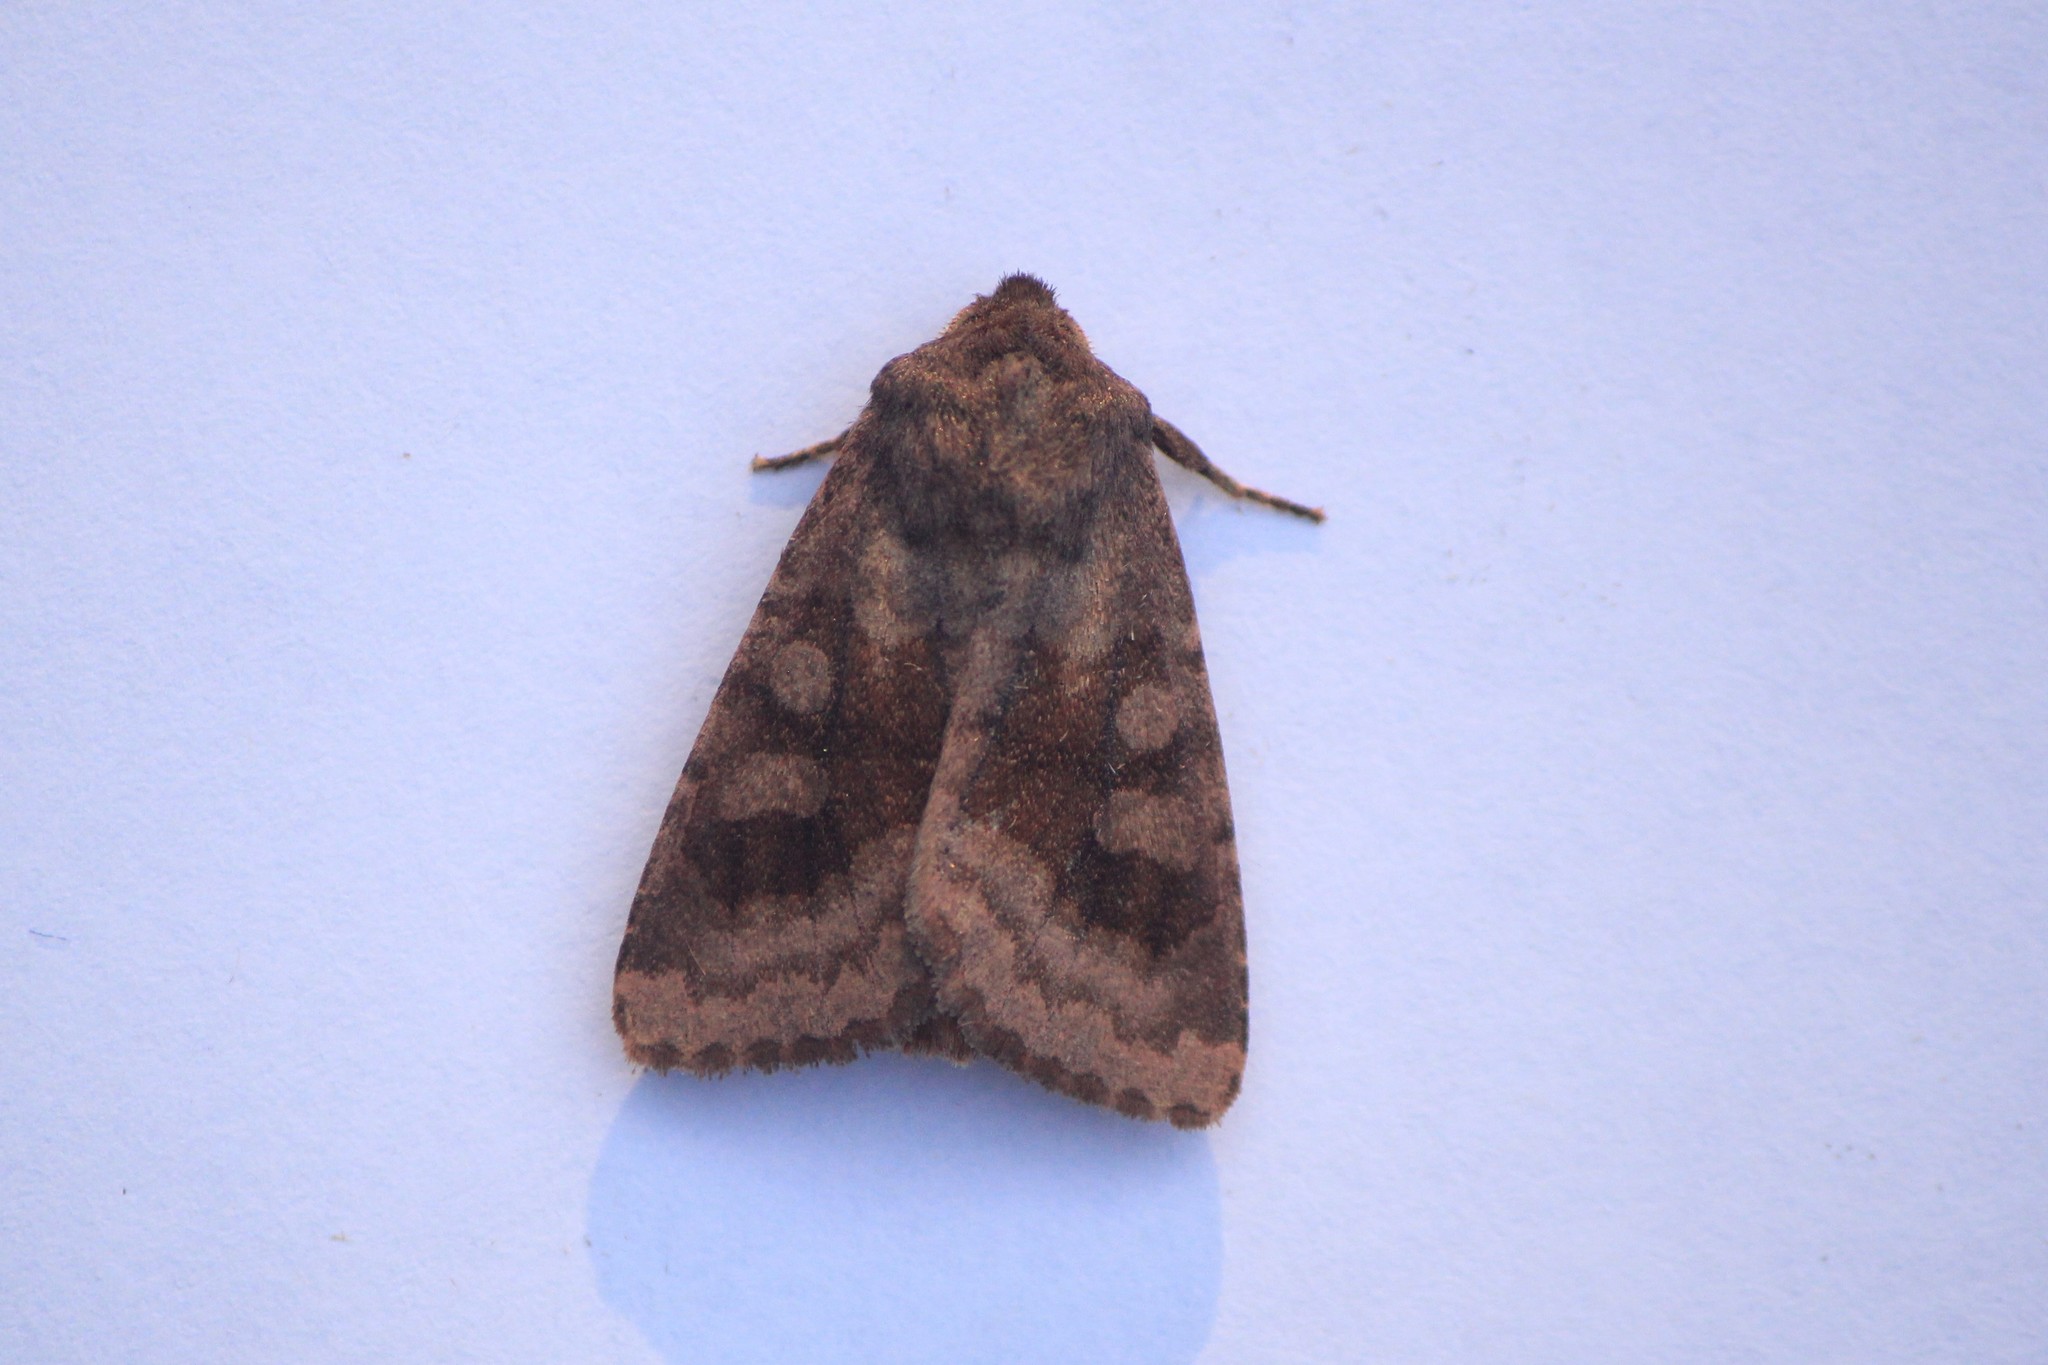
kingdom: Animalia
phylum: Arthropoda
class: Insecta
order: Lepidoptera
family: Noctuidae
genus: Nephelodes
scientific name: Nephelodes minians
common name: Bronzed cutworm
